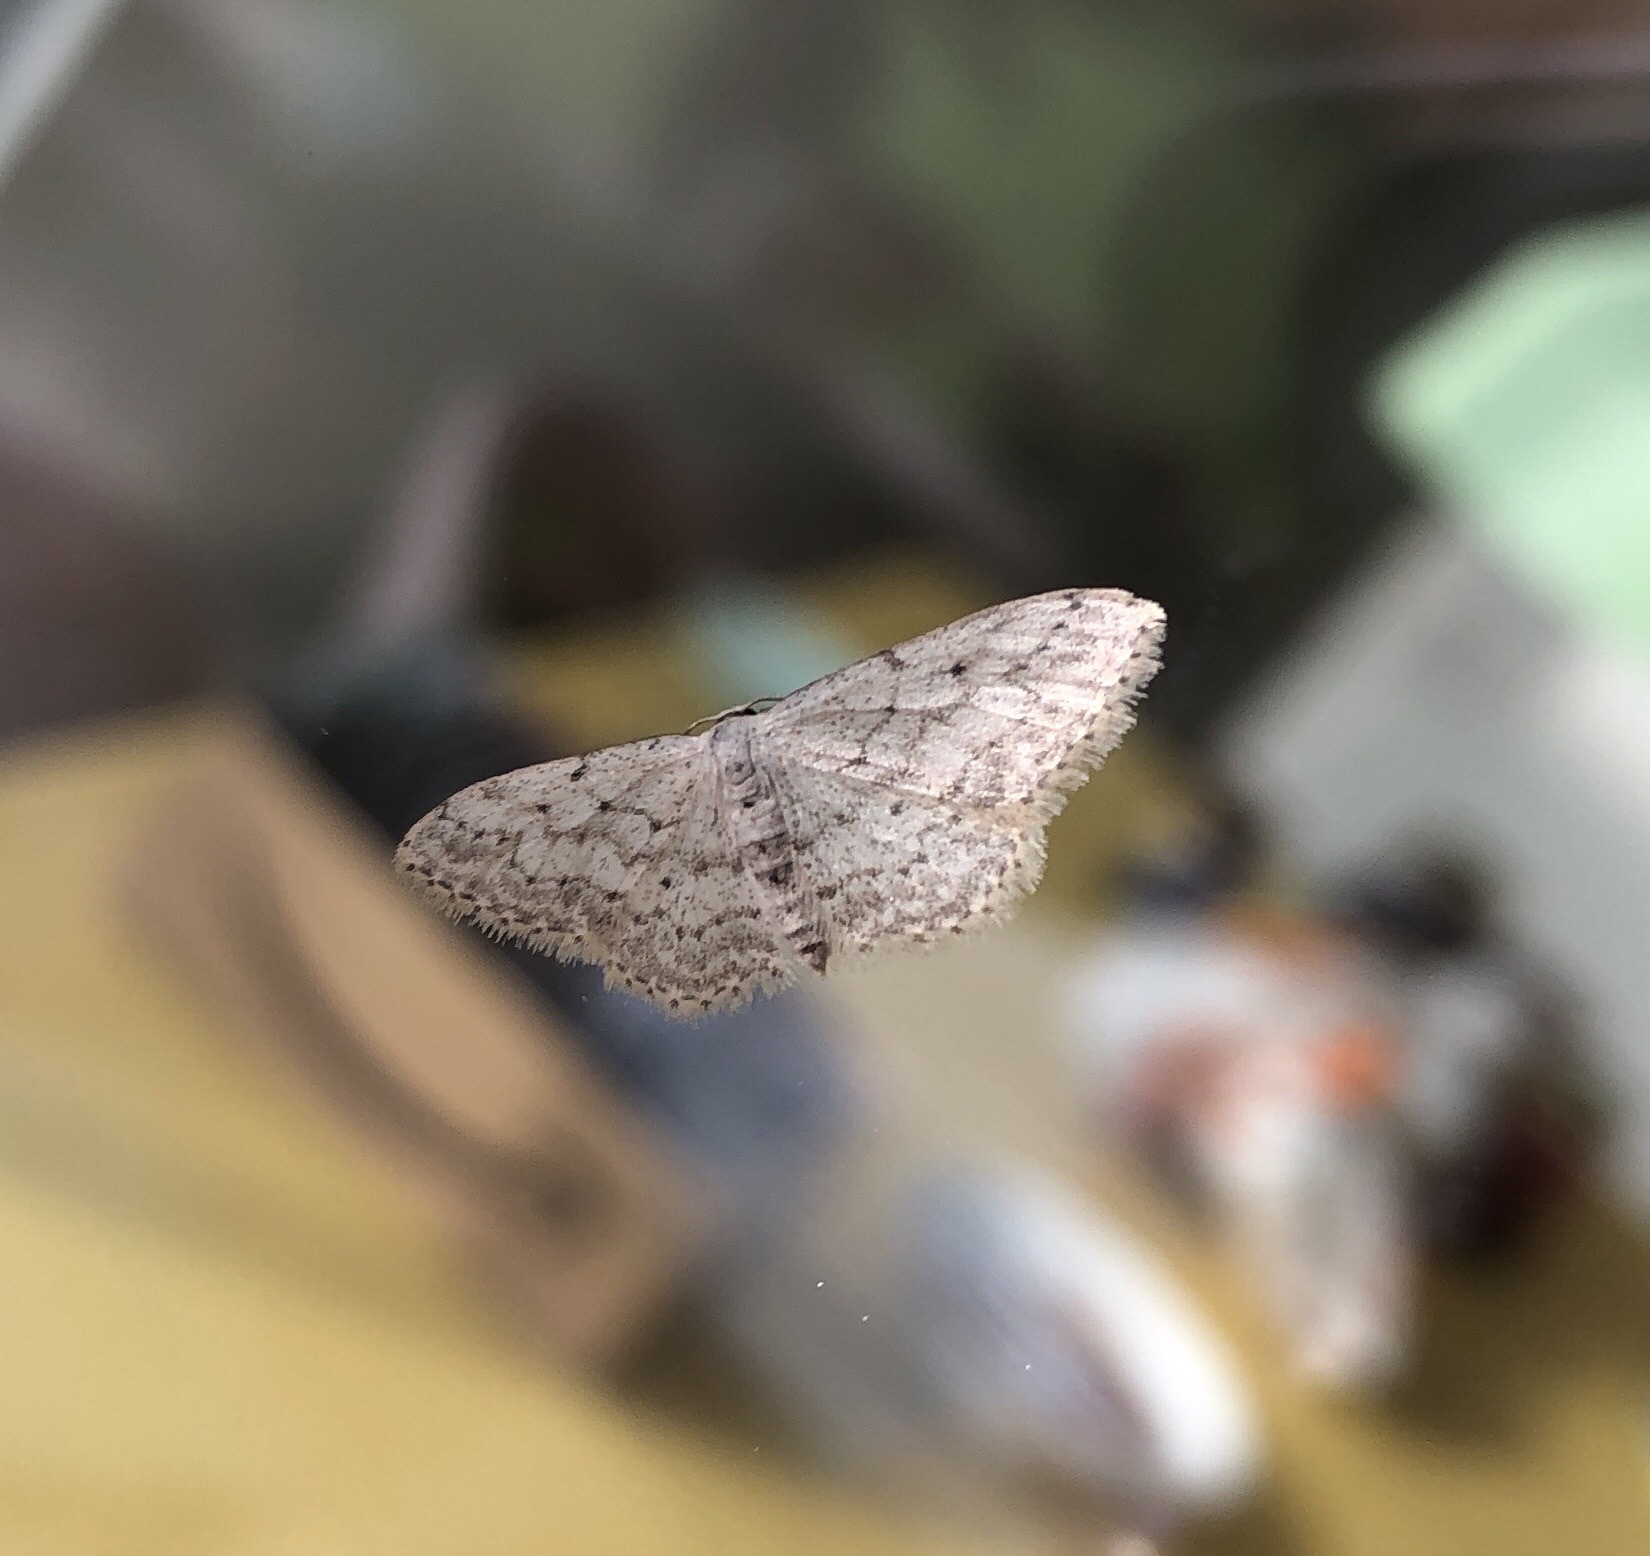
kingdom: Animalia
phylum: Arthropoda
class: Insecta
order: Lepidoptera
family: Geometridae
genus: Idaea
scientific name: Idaea seriata
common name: Small dusty wave
